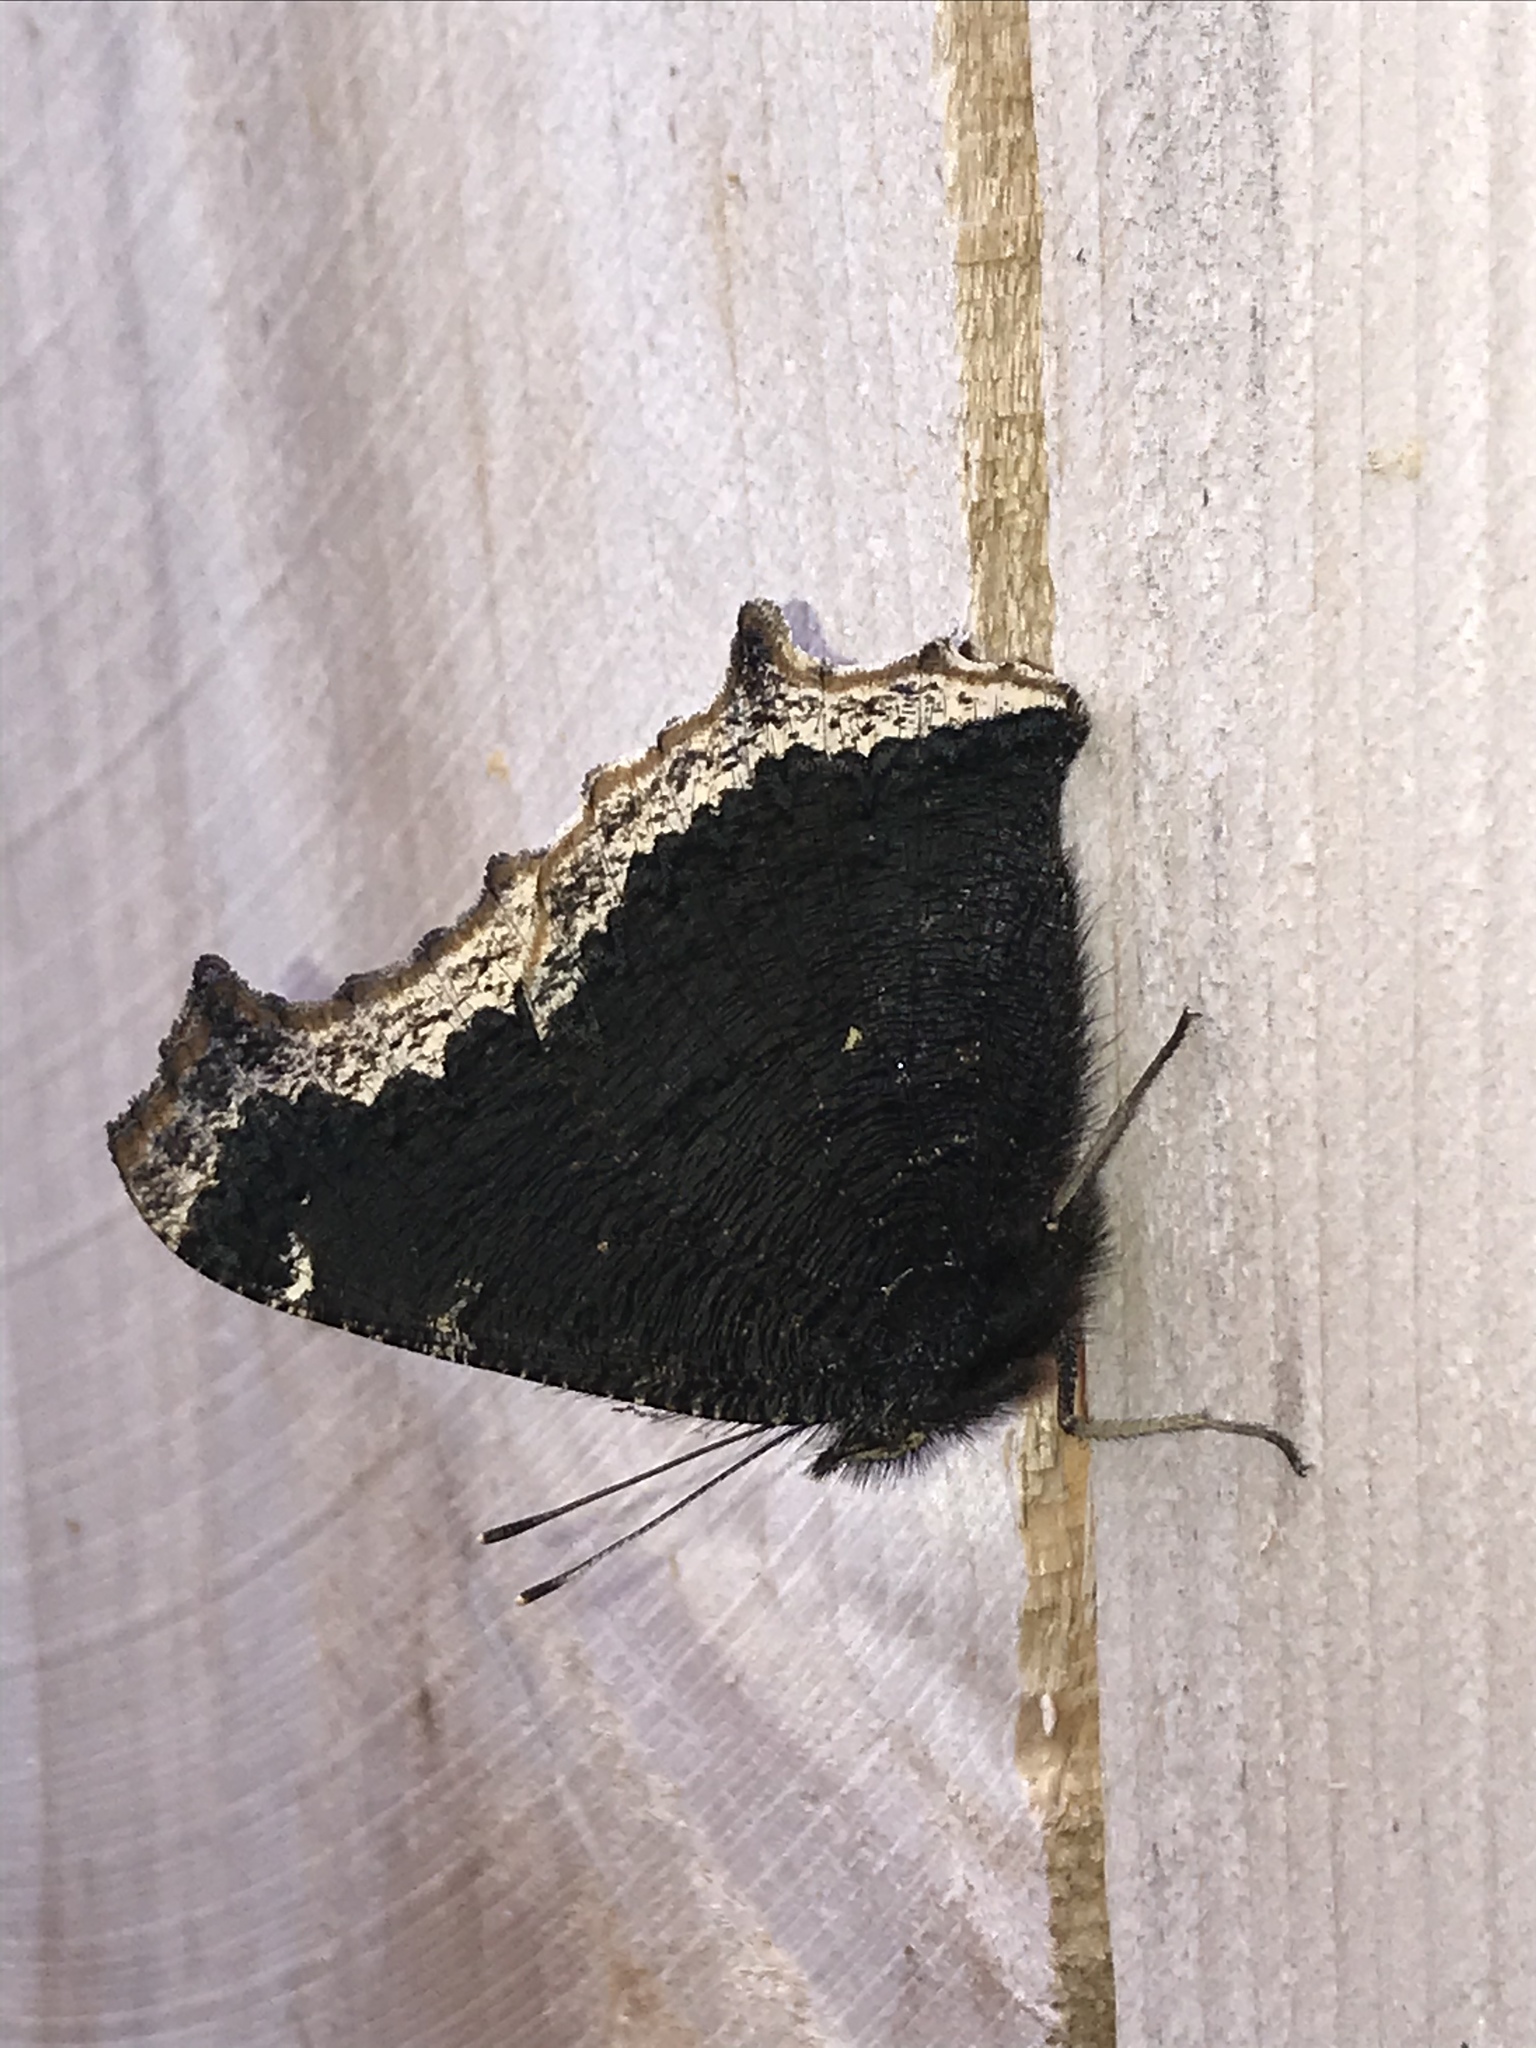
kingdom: Animalia
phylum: Arthropoda
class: Insecta
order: Lepidoptera
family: Nymphalidae
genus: Nymphalis
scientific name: Nymphalis antiopa
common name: Camberwell beauty
